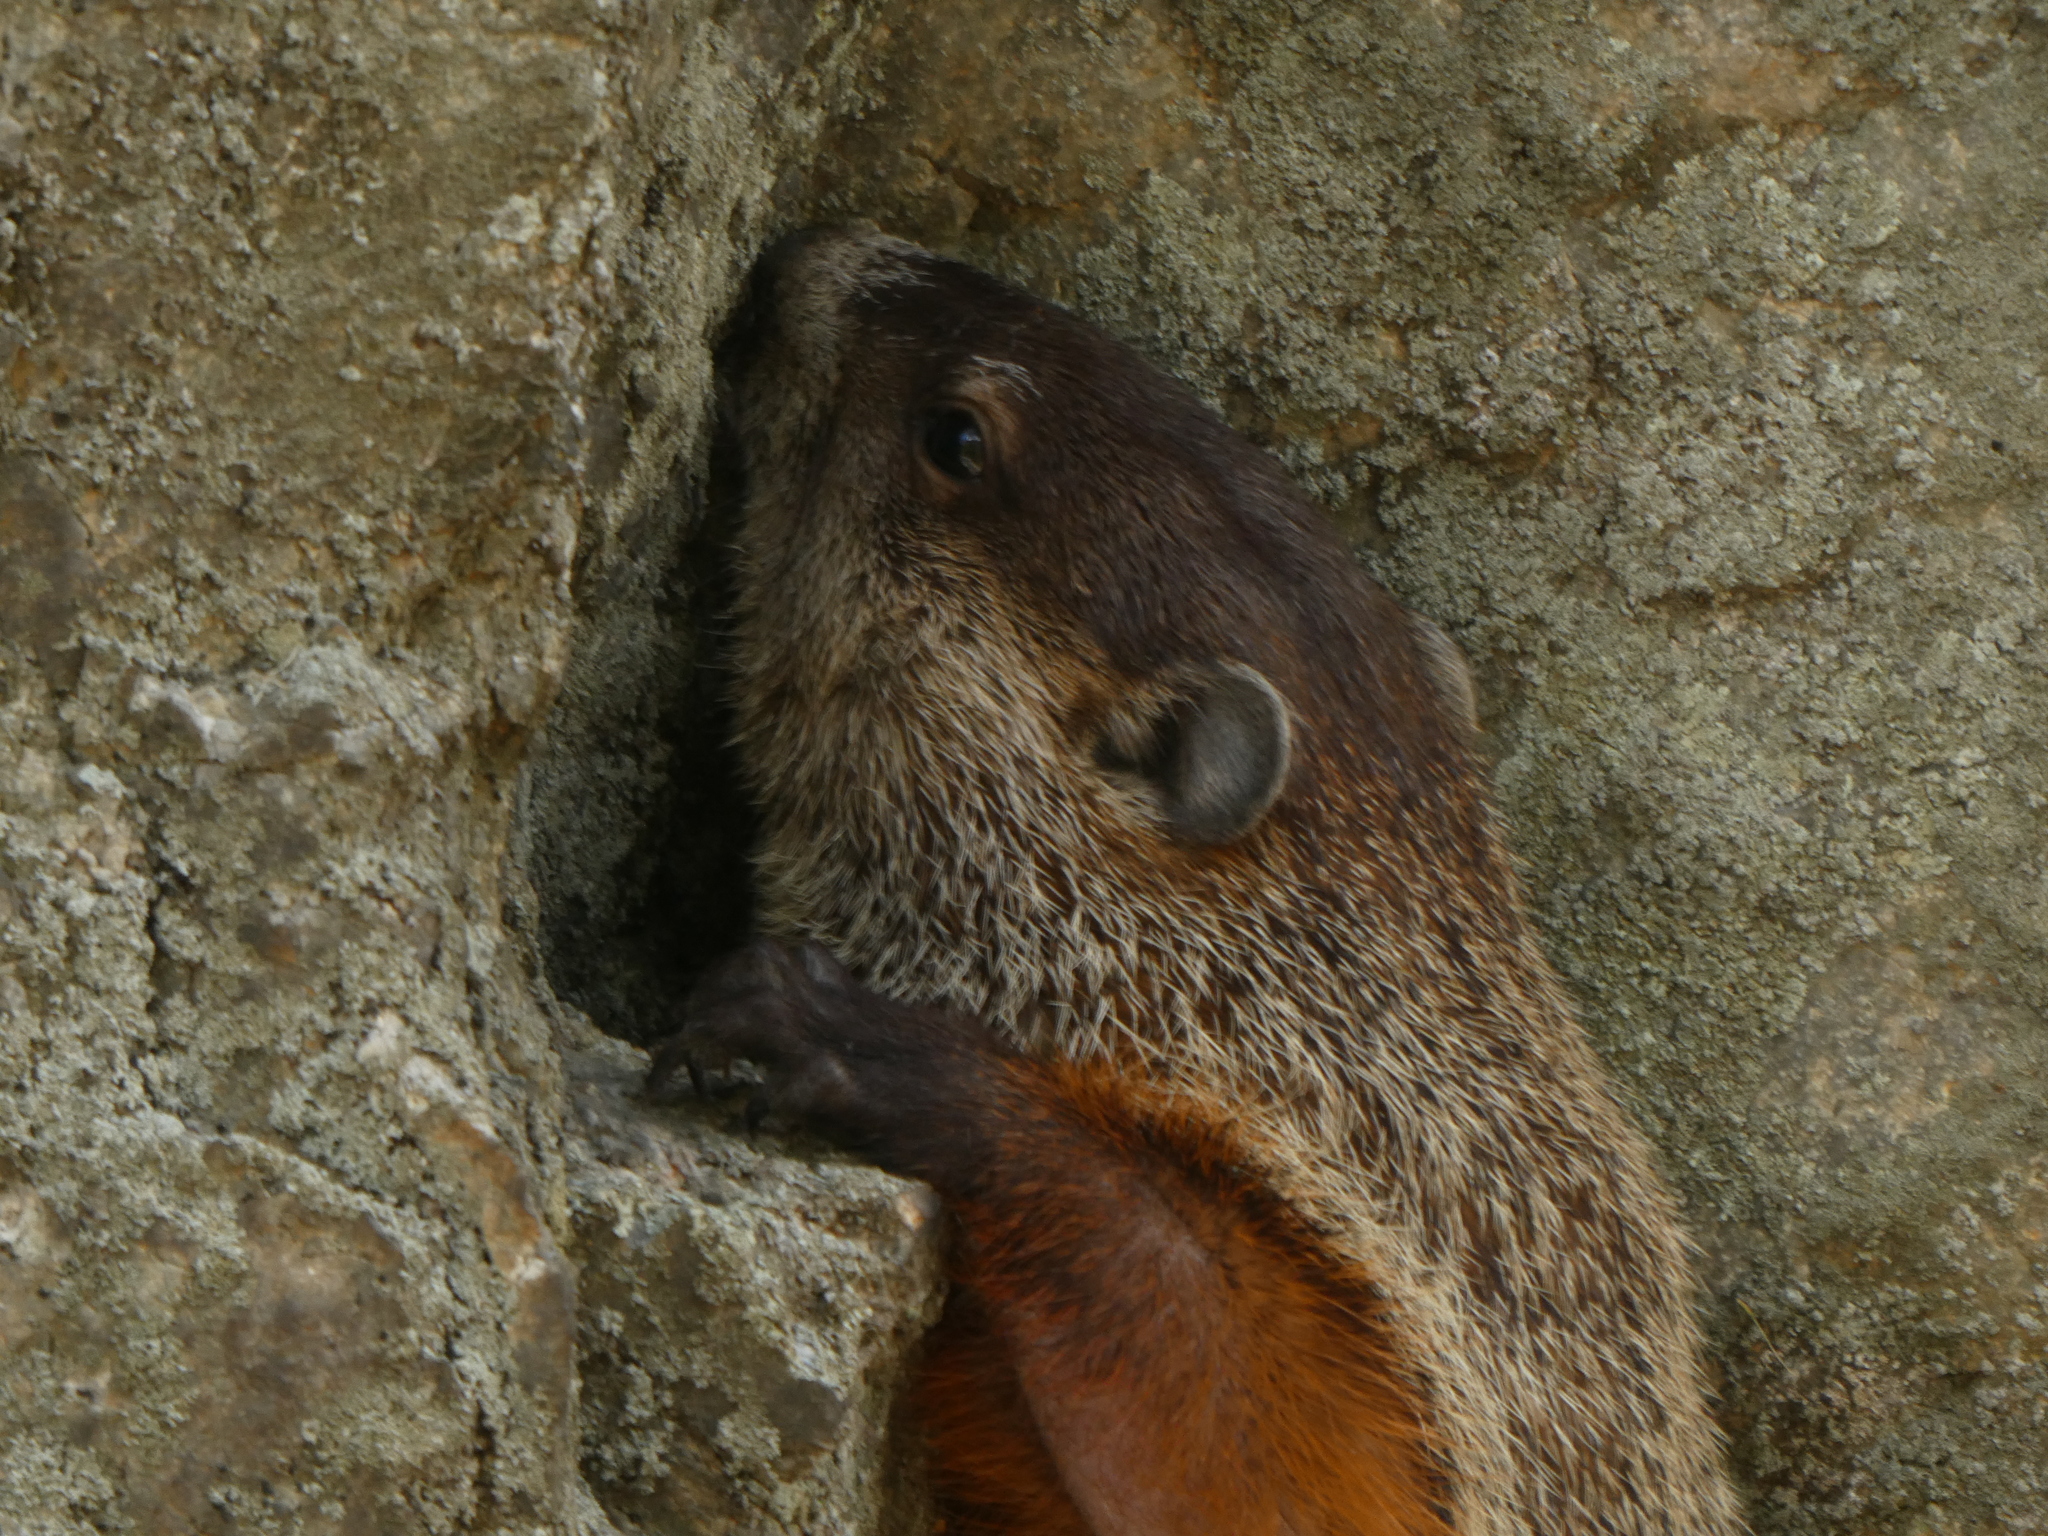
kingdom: Animalia
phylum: Chordata
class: Mammalia
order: Rodentia
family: Sciuridae
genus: Marmota
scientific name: Marmota monax
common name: Groundhog
